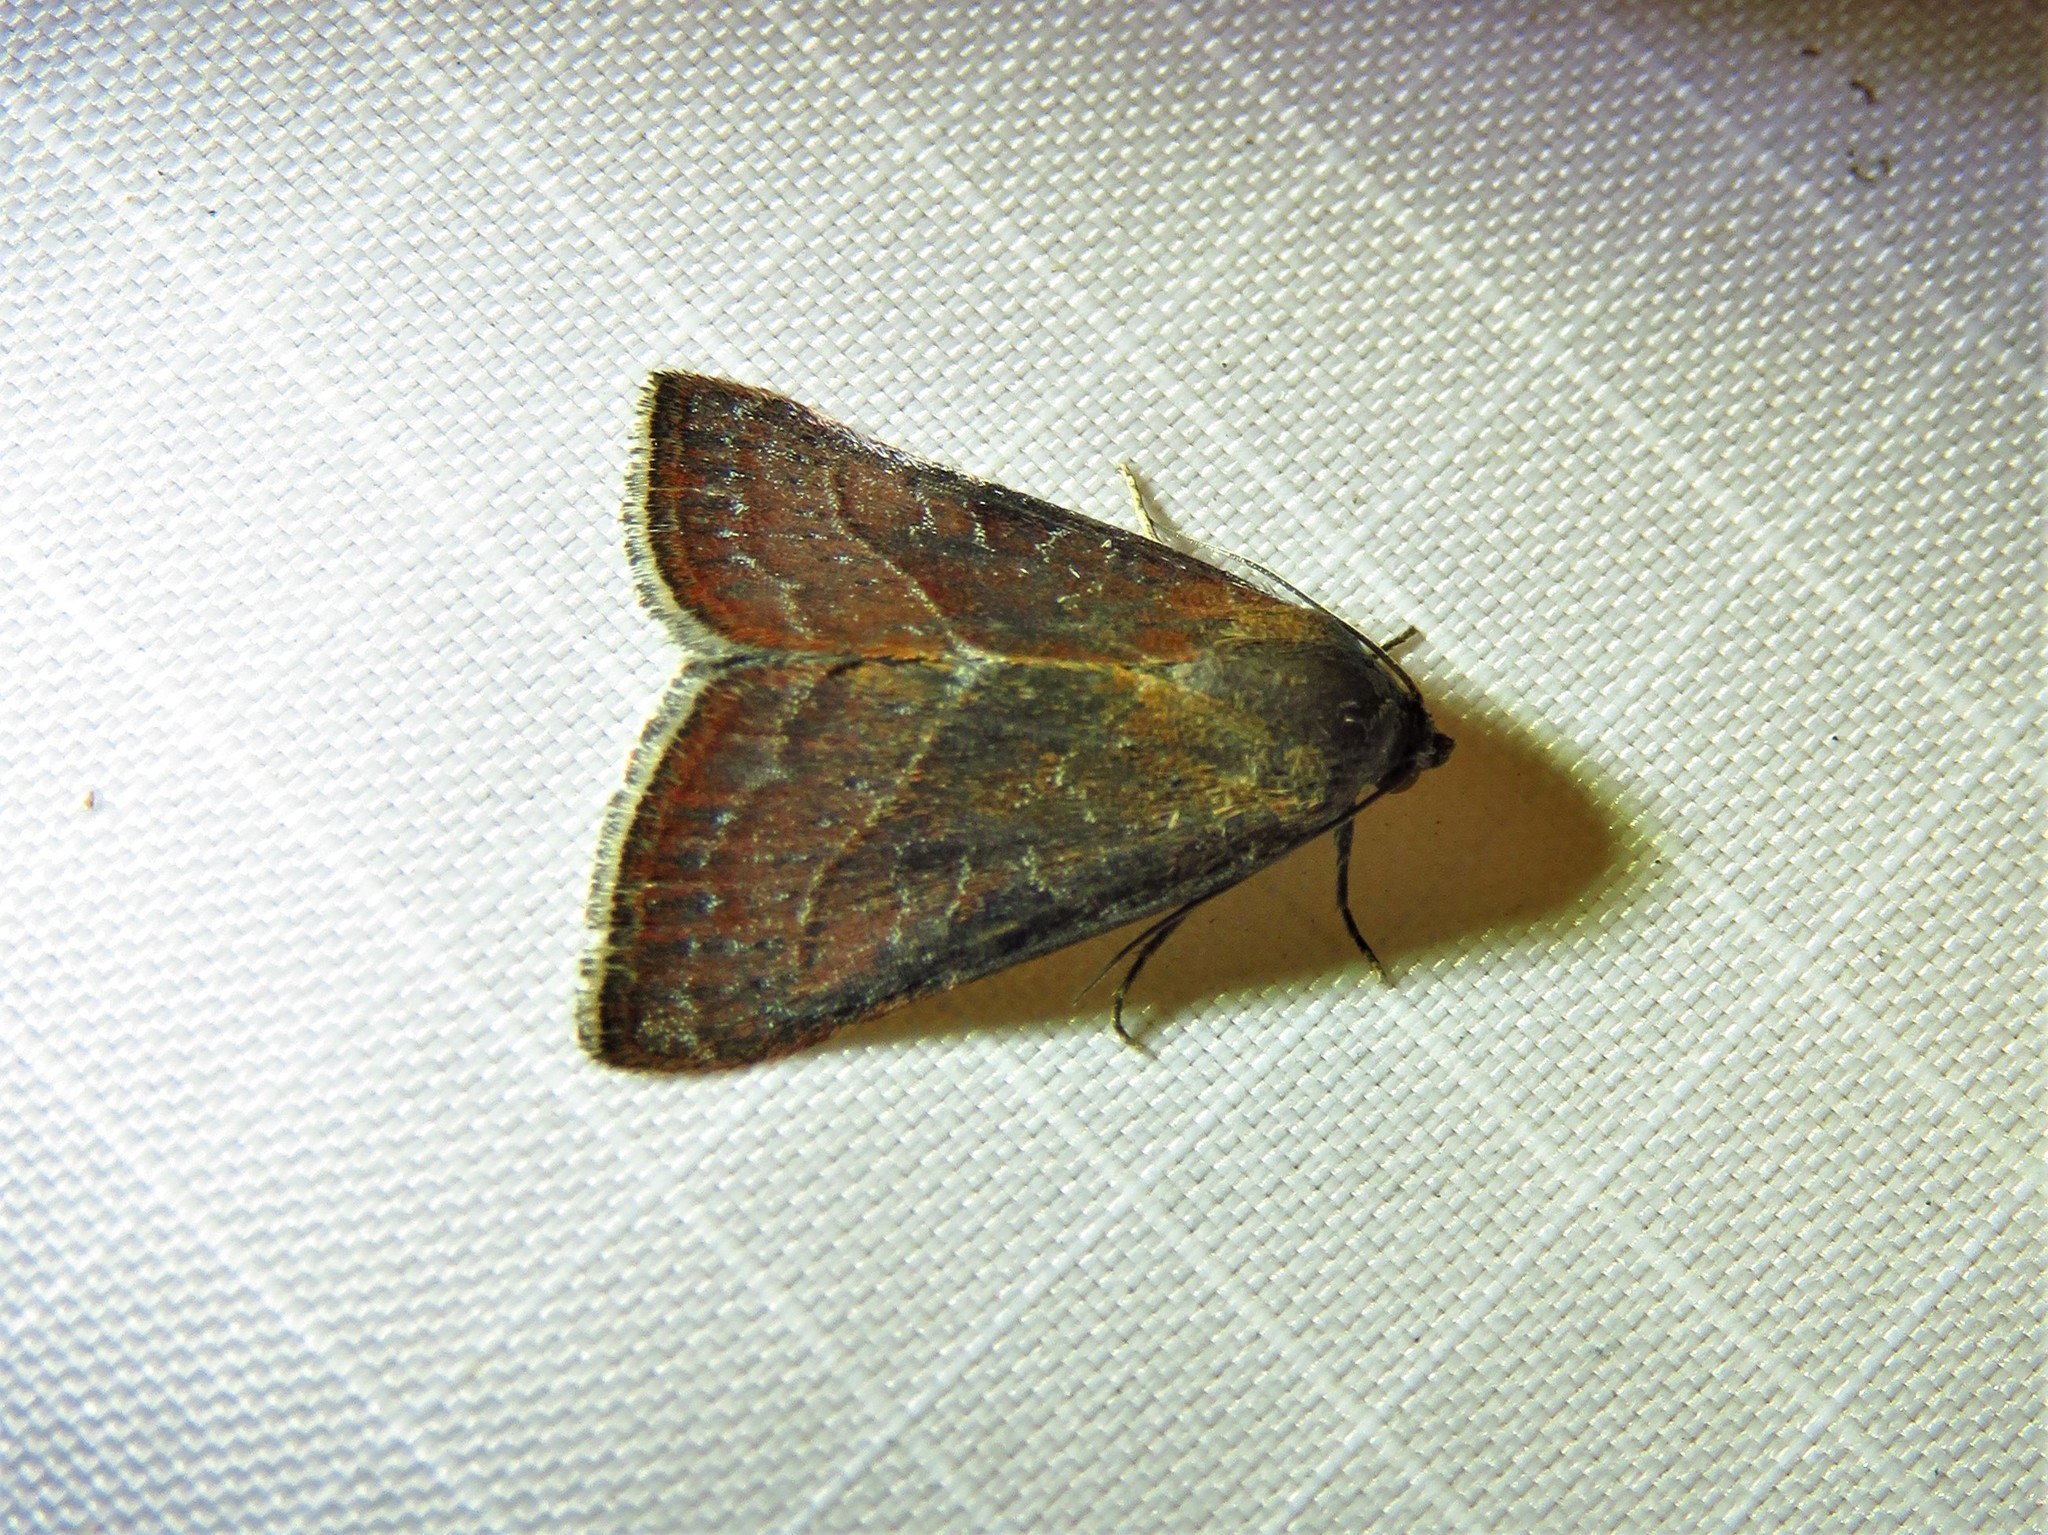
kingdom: Animalia
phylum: Arthropoda
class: Insecta
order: Lepidoptera
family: Noctuidae
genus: Galgula
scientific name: Galgula partita
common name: Wedgeling
